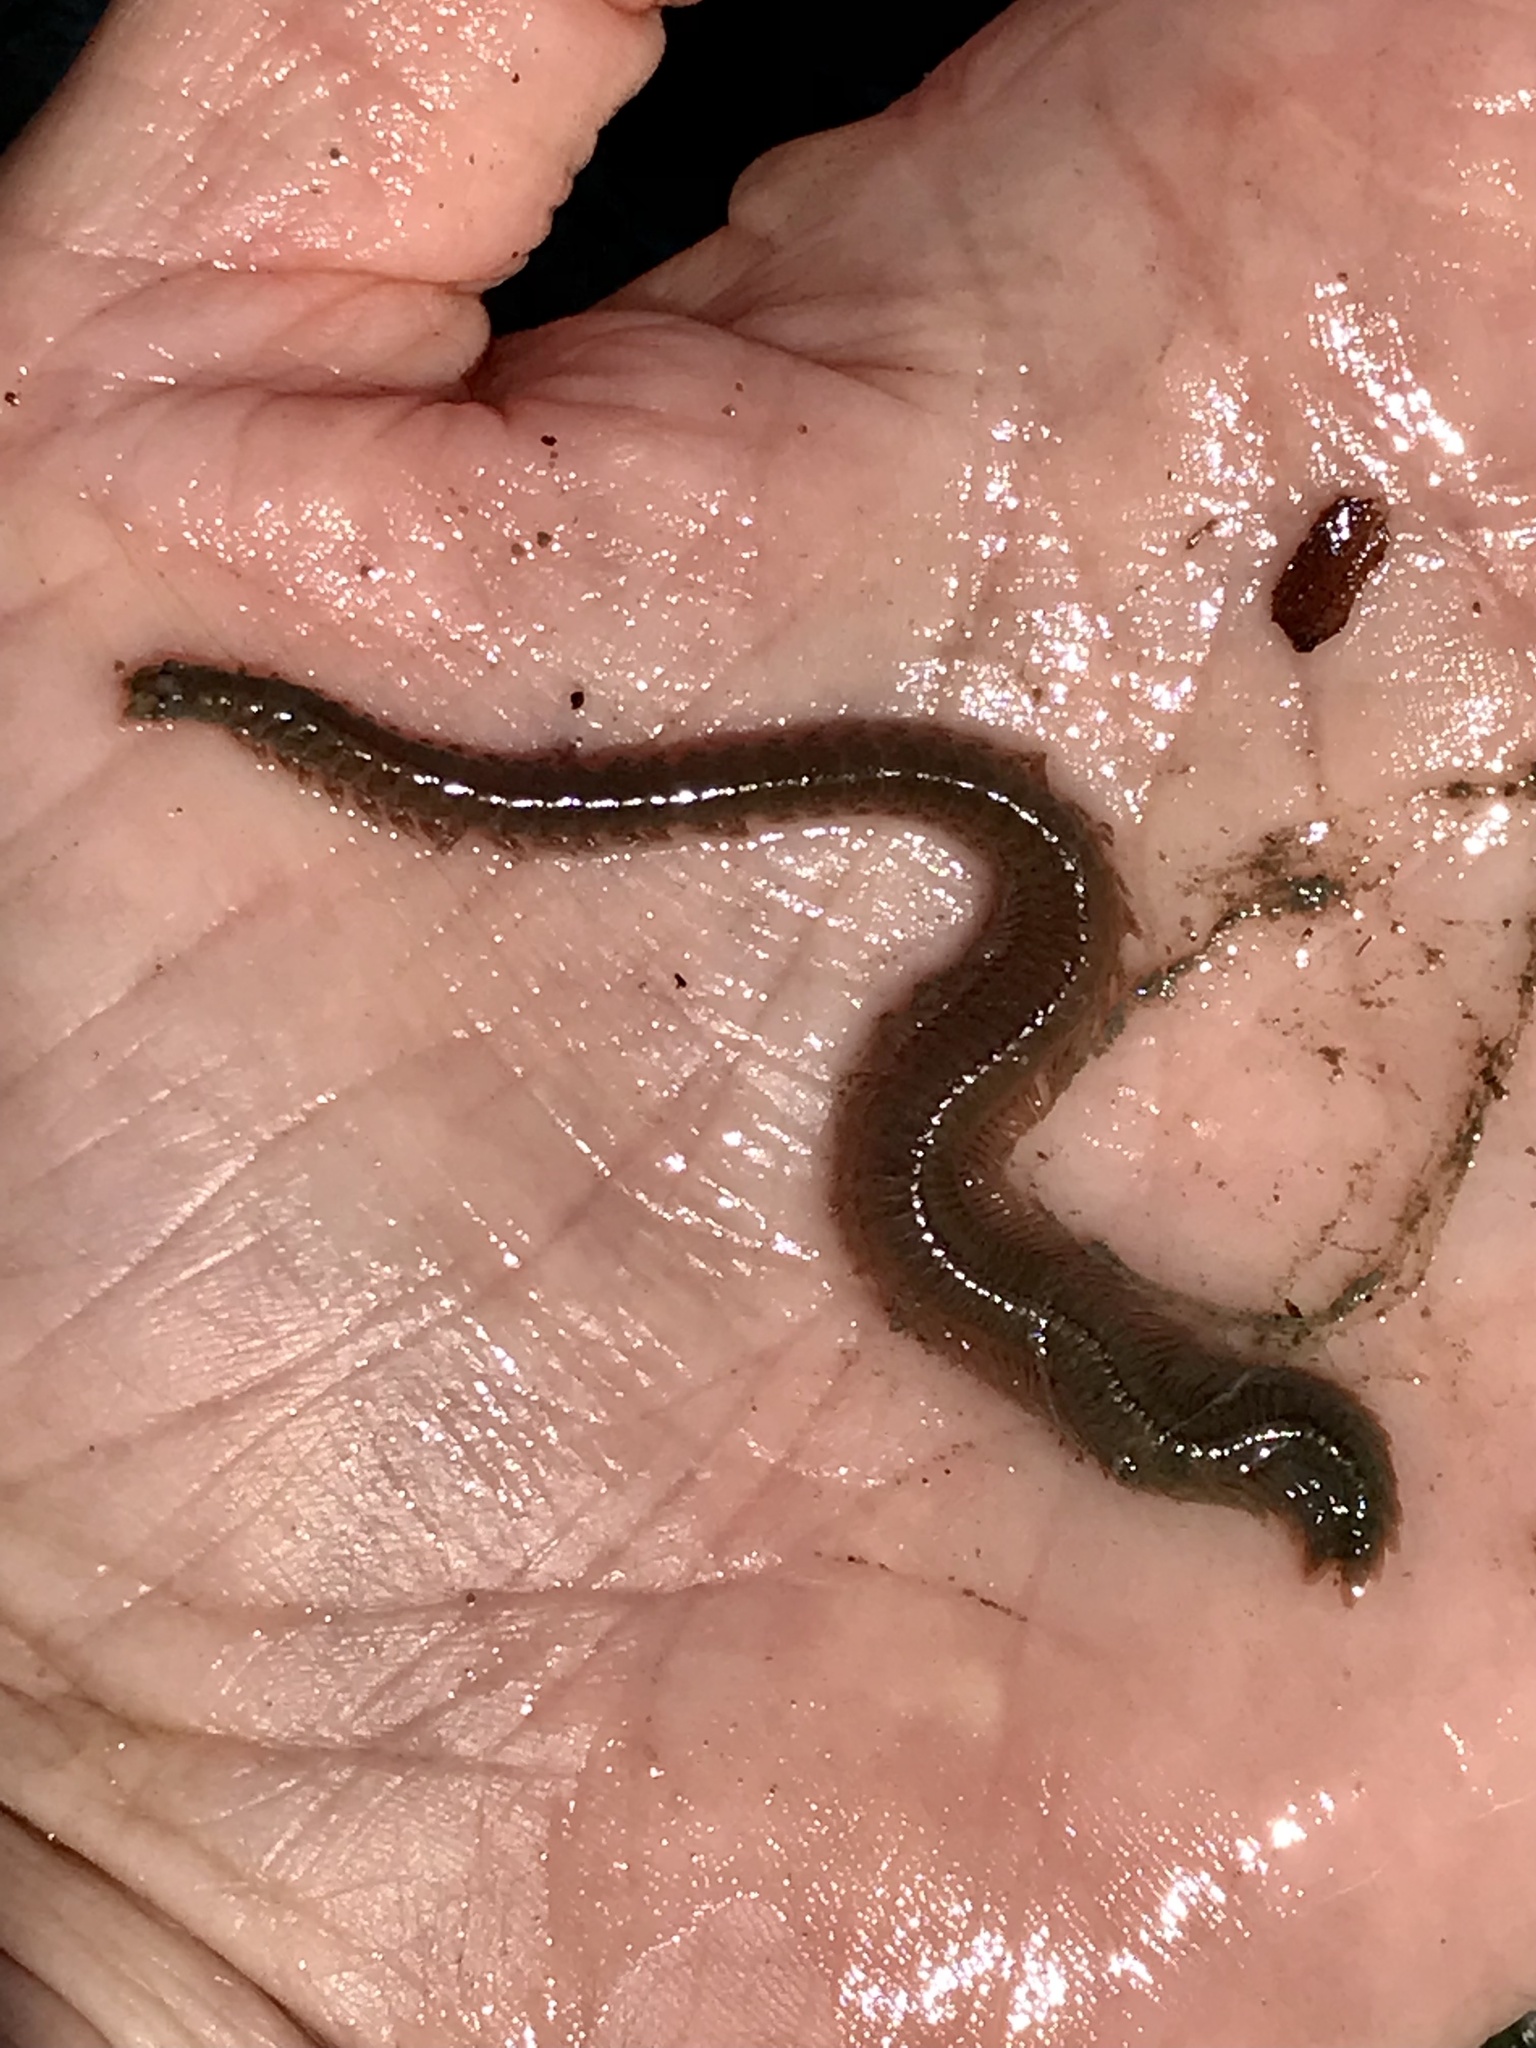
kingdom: Animalia
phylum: Annelida
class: Polychaeta
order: Phyllodocida
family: Nereididae
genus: Alitta
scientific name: Alitta succinea
